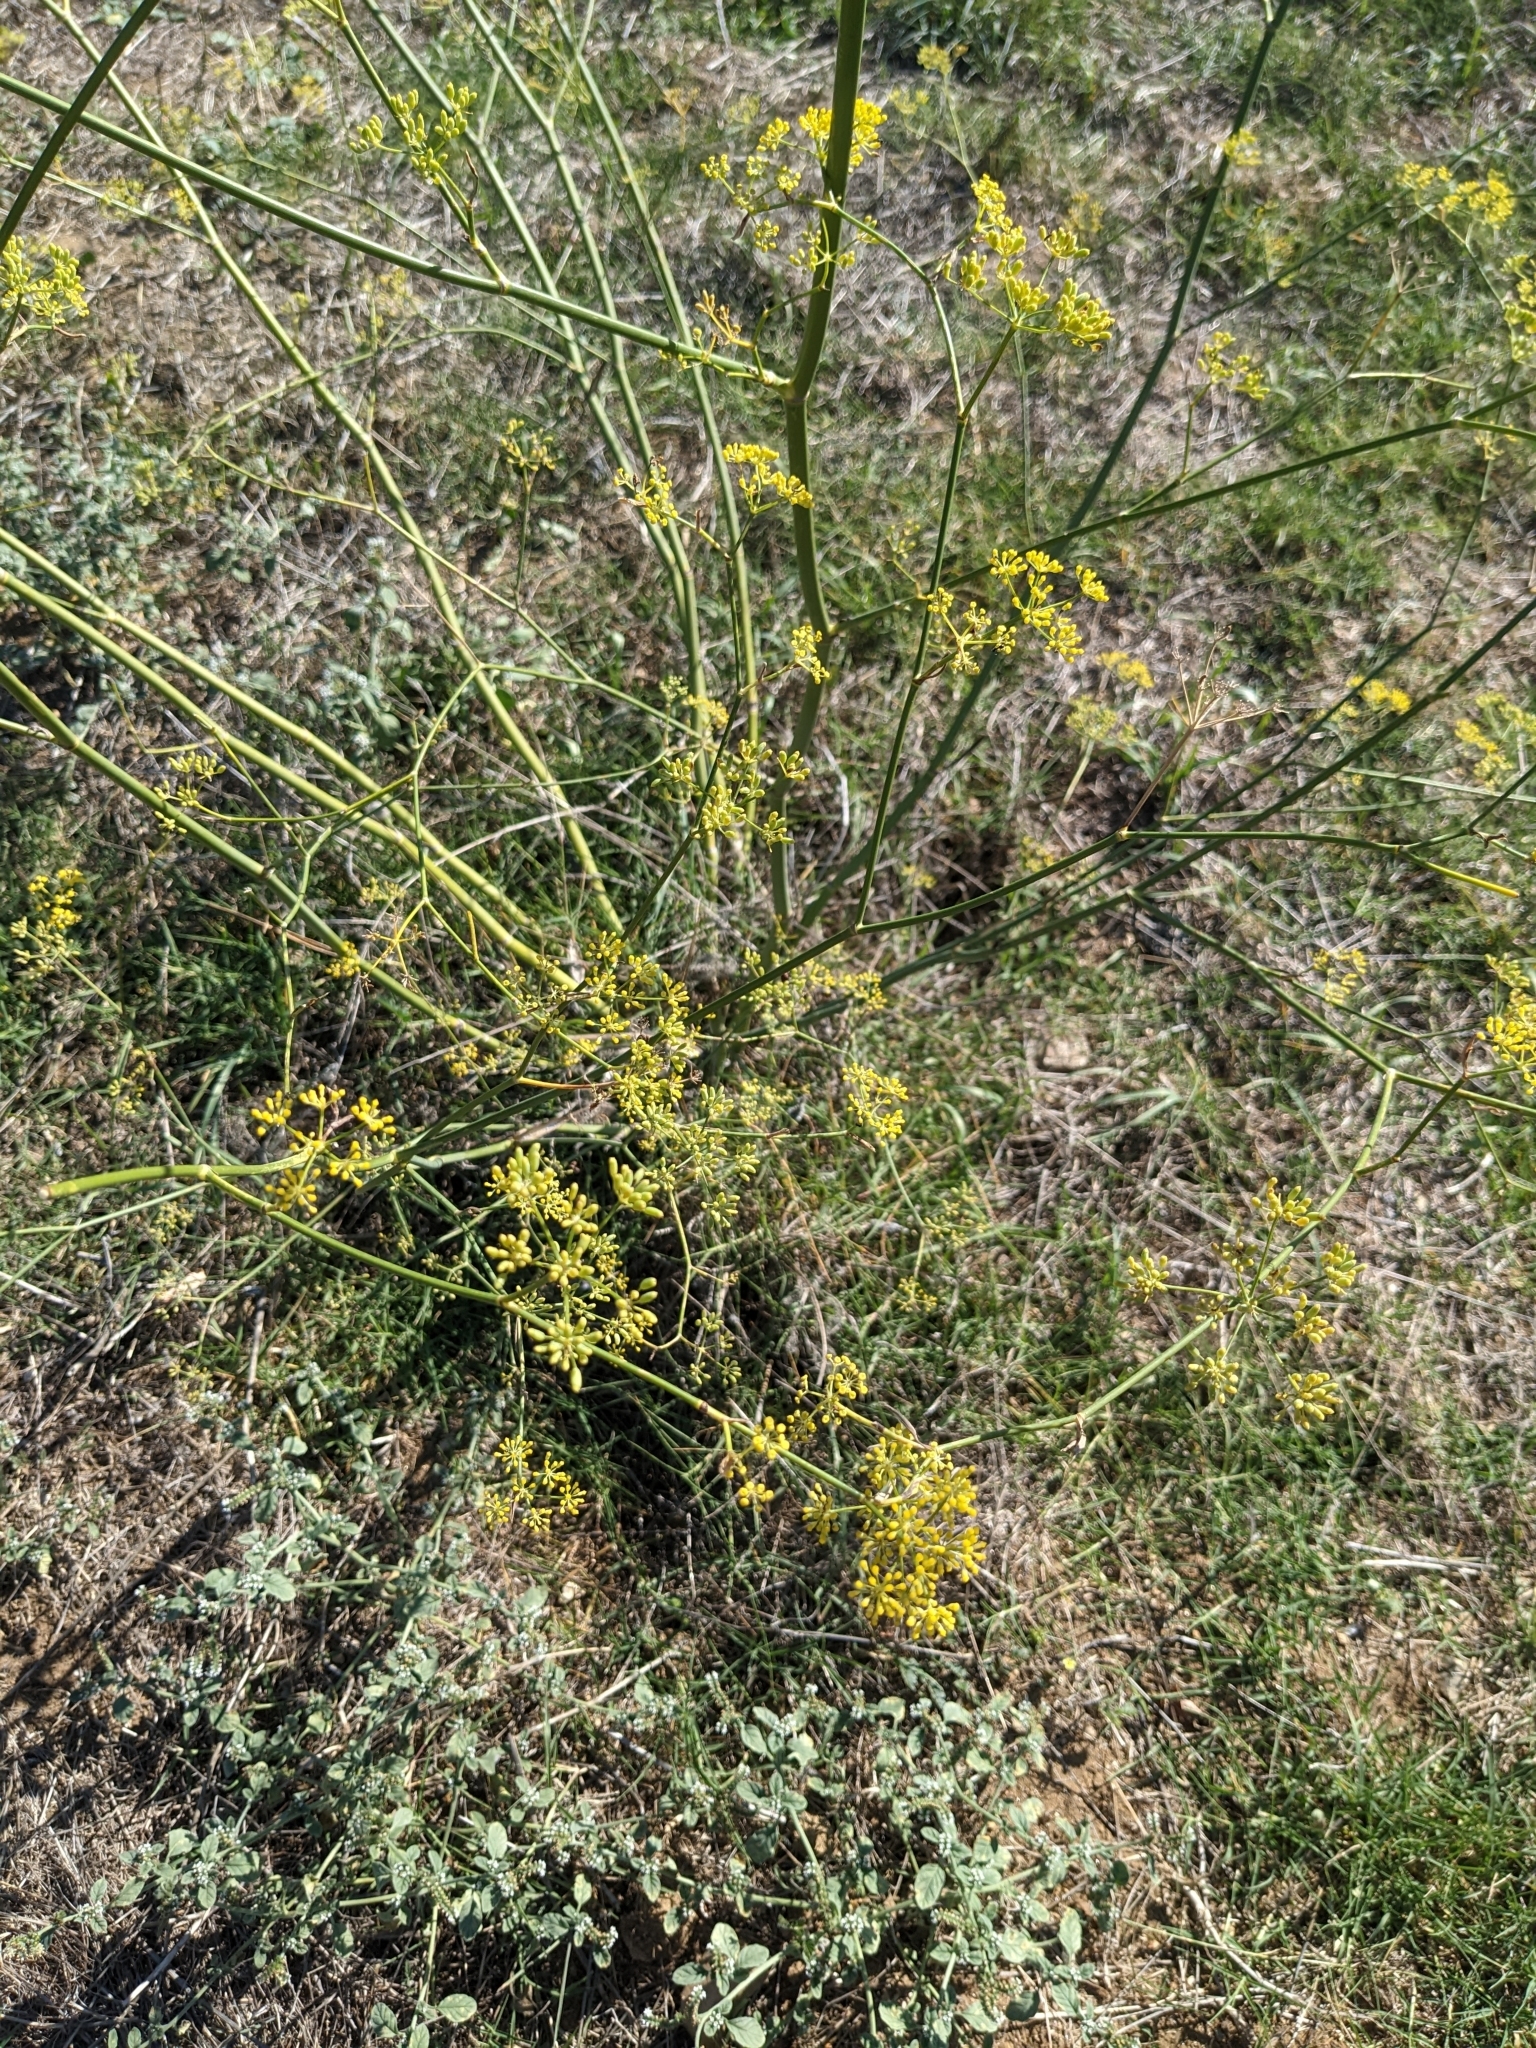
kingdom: Plantae
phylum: Tracheophyta
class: Magnoliopsida
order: Apiales
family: Apiaceae
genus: Foeniculum
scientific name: Foeniculum vulgare
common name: Fennel
